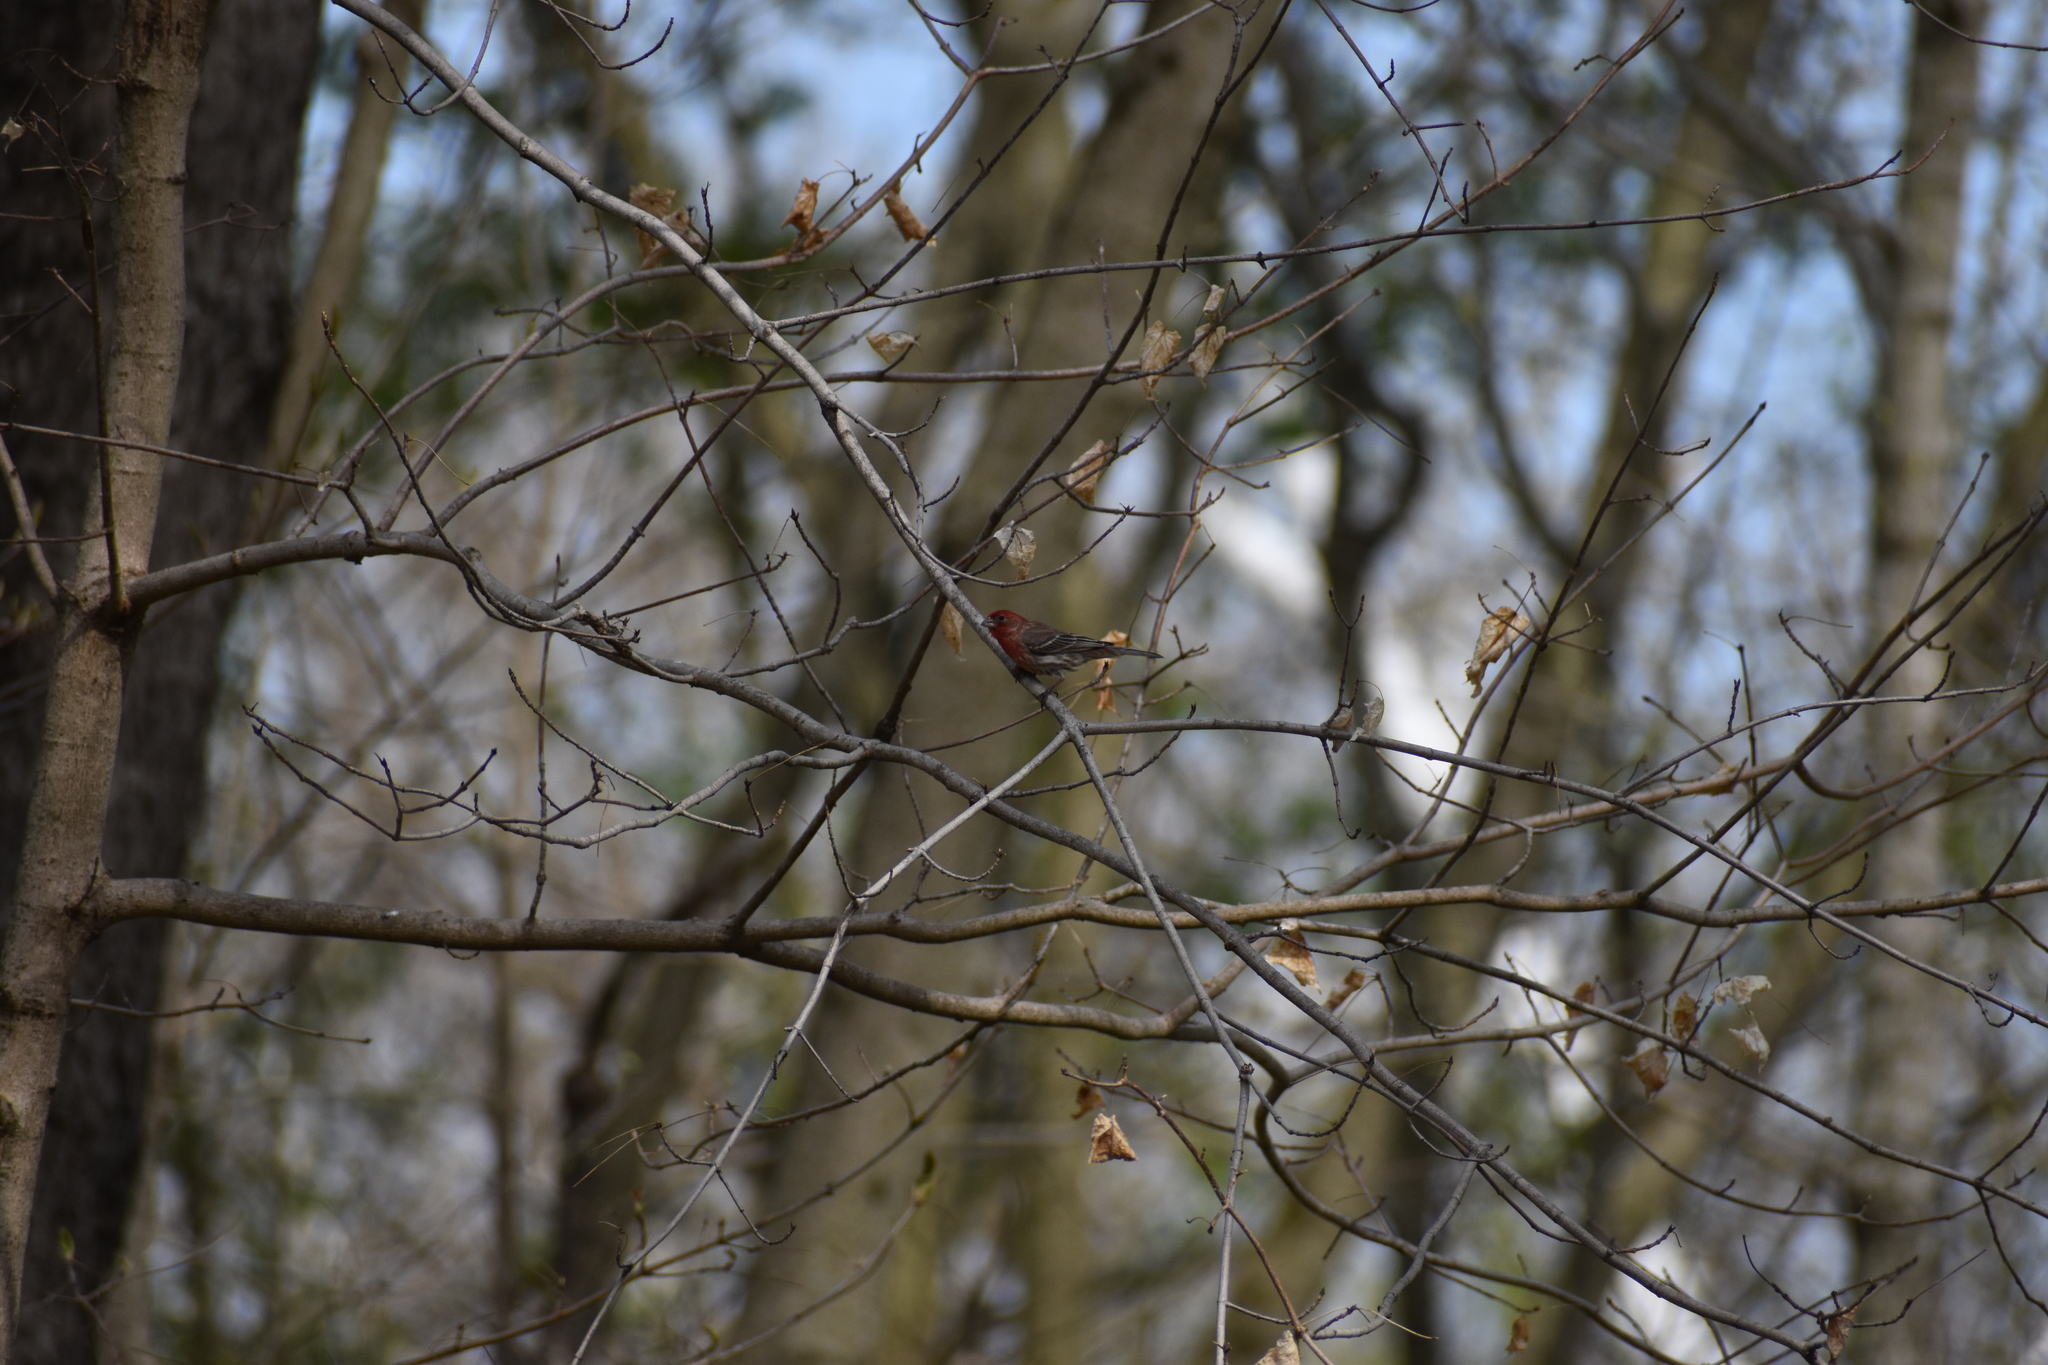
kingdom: Animalia
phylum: Chordata
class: Aves
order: Passeriformes
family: Fringillidae
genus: Haemorhous
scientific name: Haemorhous mexicanus
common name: House finch
